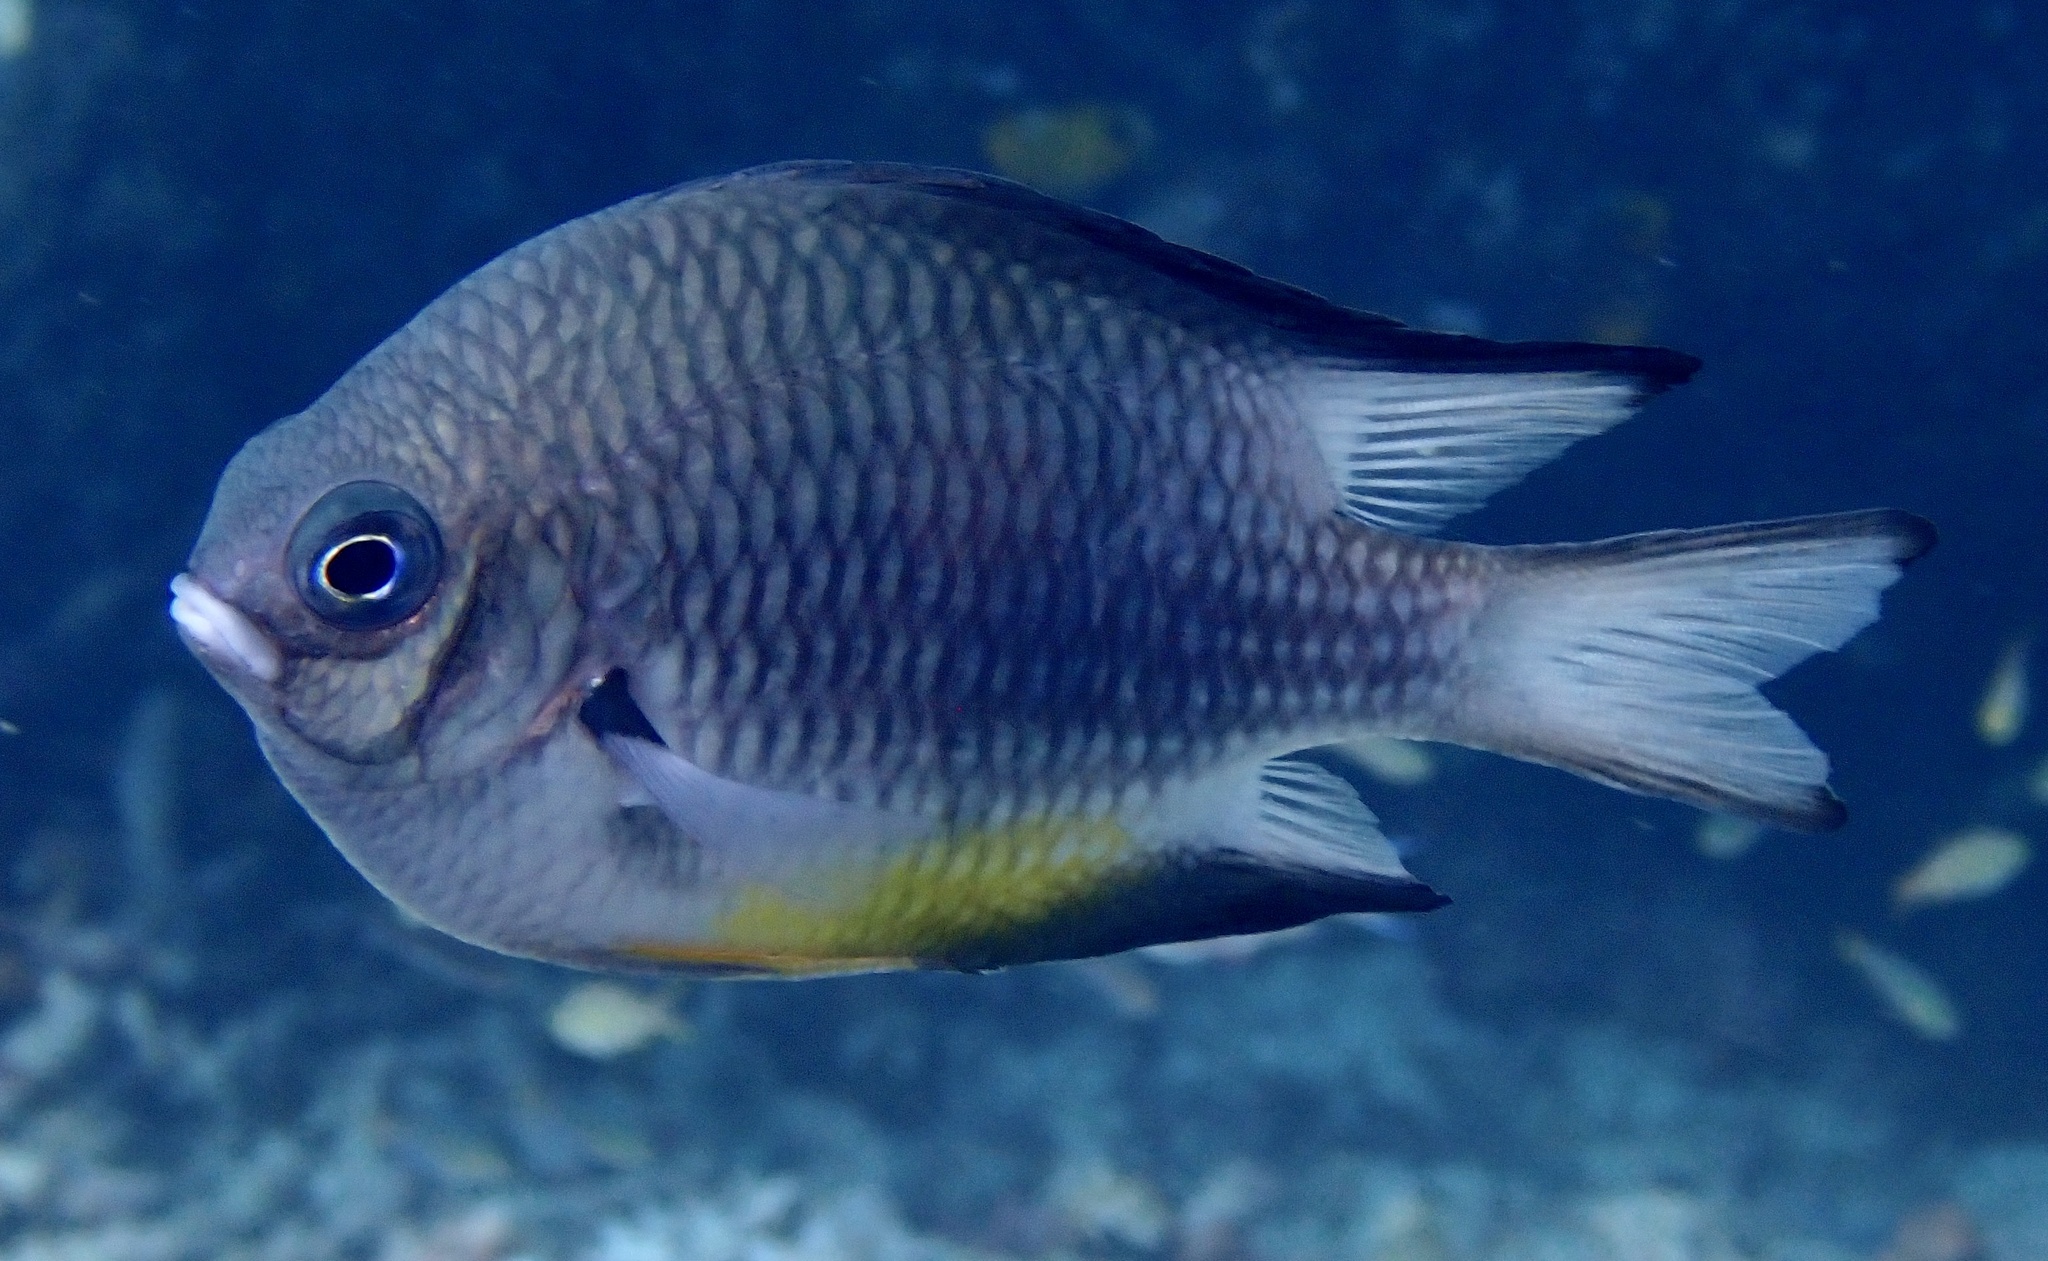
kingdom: Animalia
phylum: Chordata
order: Perciformes
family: Pomacentridae
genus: Amblyglyphidodon
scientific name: Amblyglyphidodon leucogaster
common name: White-belly damsel
